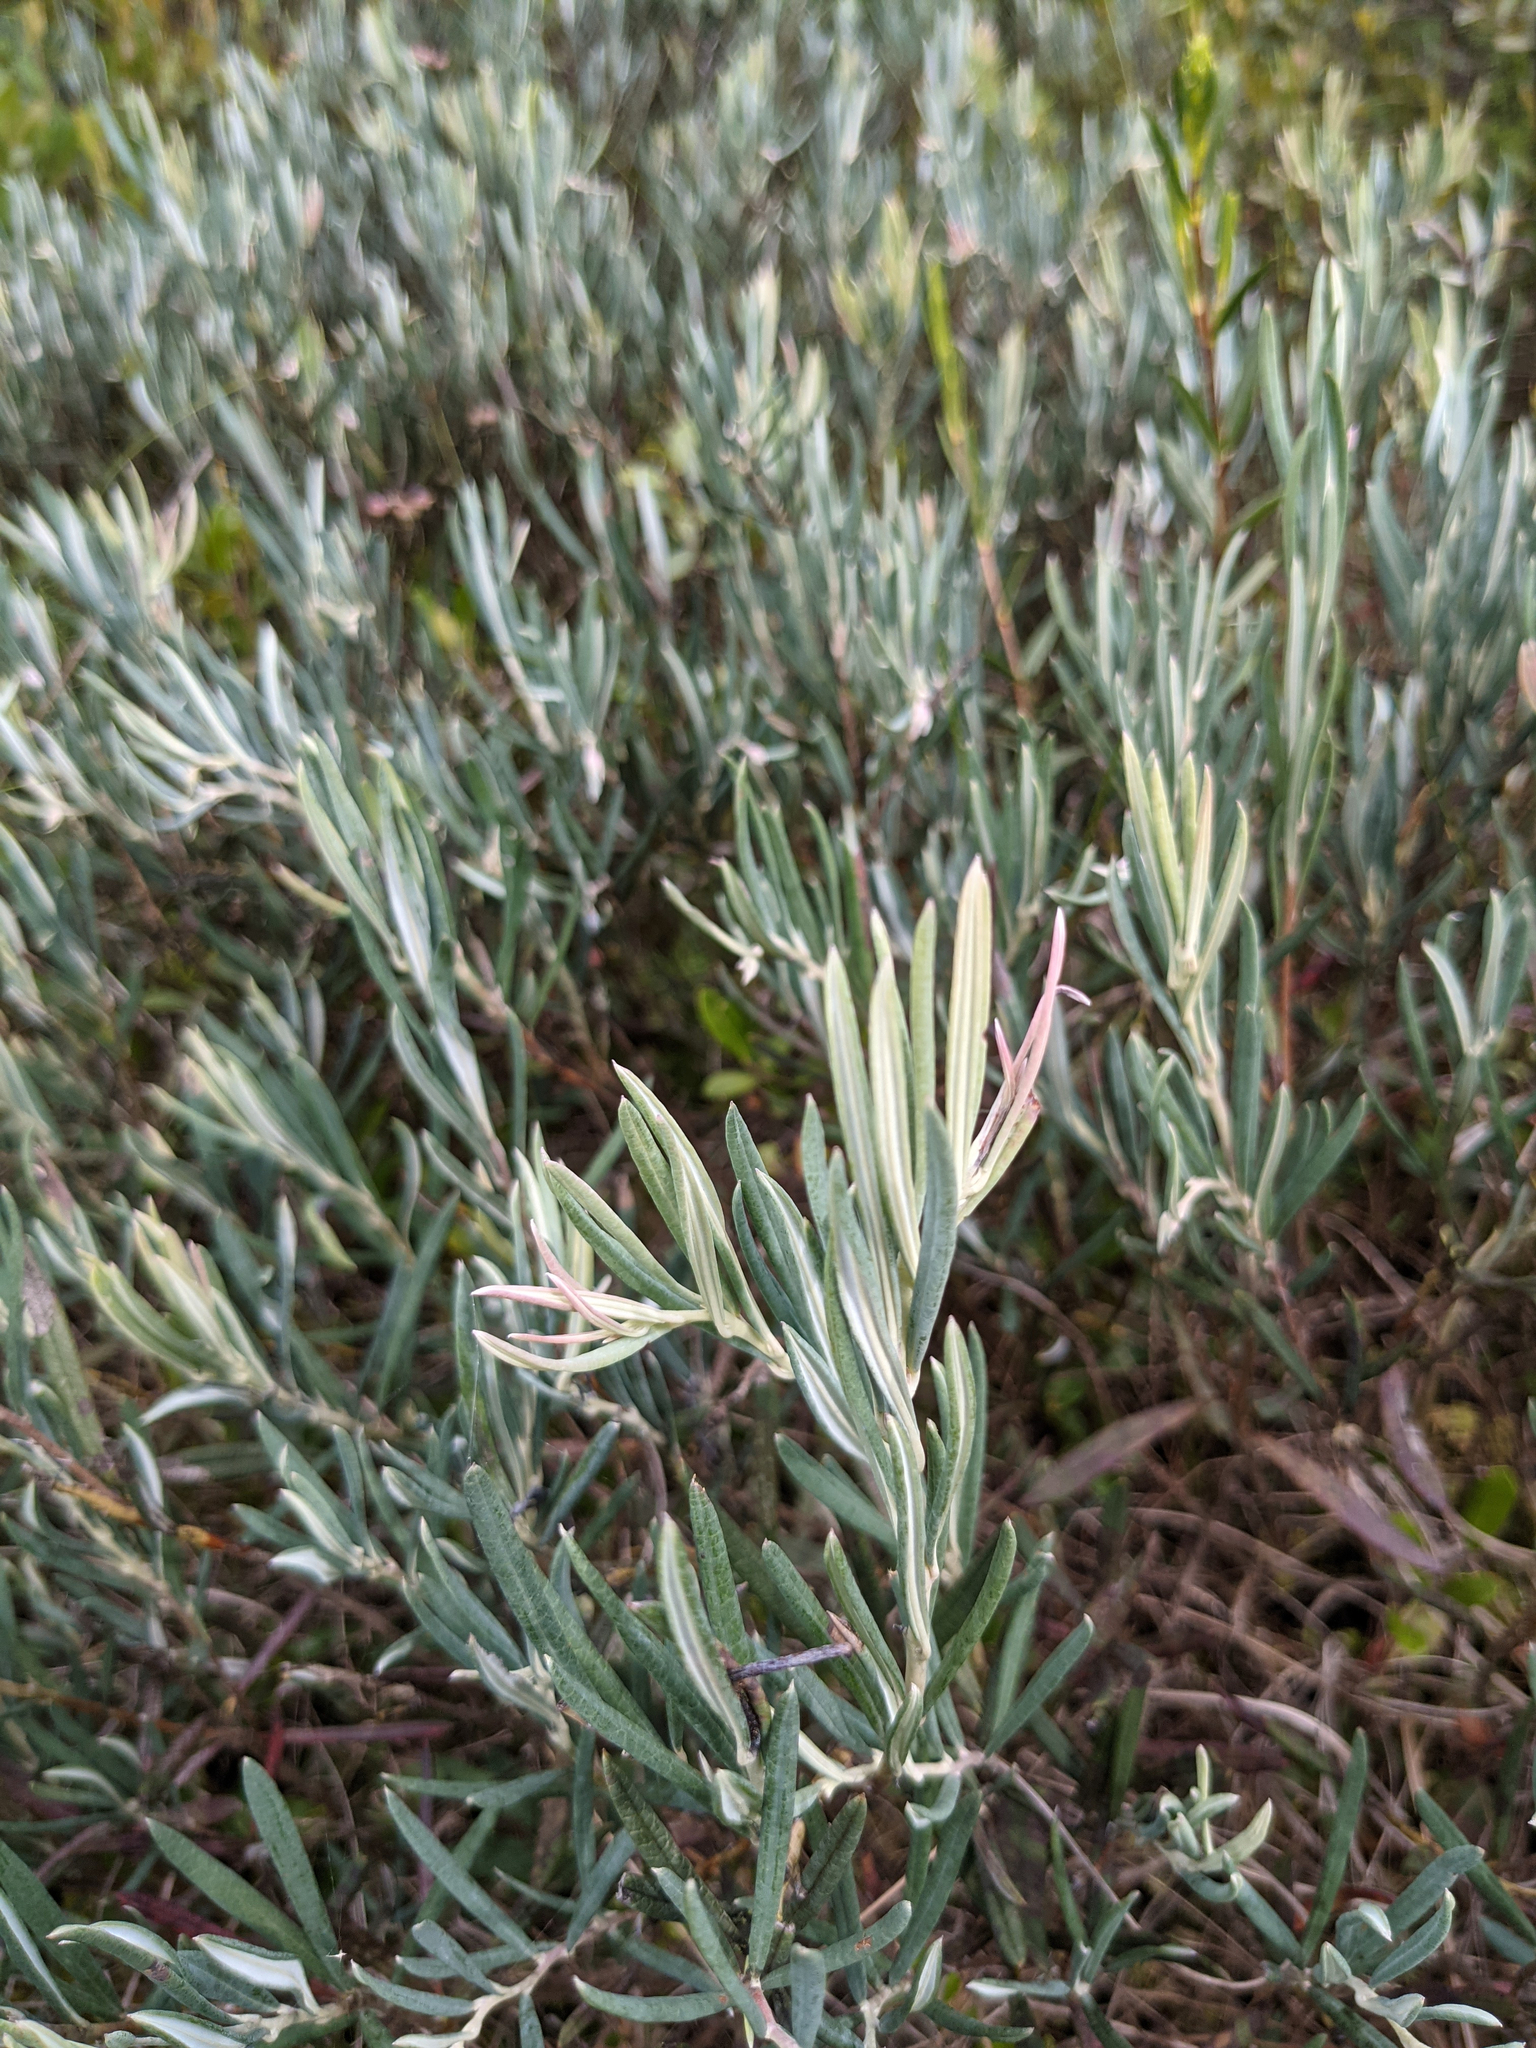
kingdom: Plantae
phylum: Tracheophyta
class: Magnoliopsida
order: Ericales
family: Ericaceae
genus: Andromeda
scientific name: Andromeda polifolia
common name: Bog-rosemary
